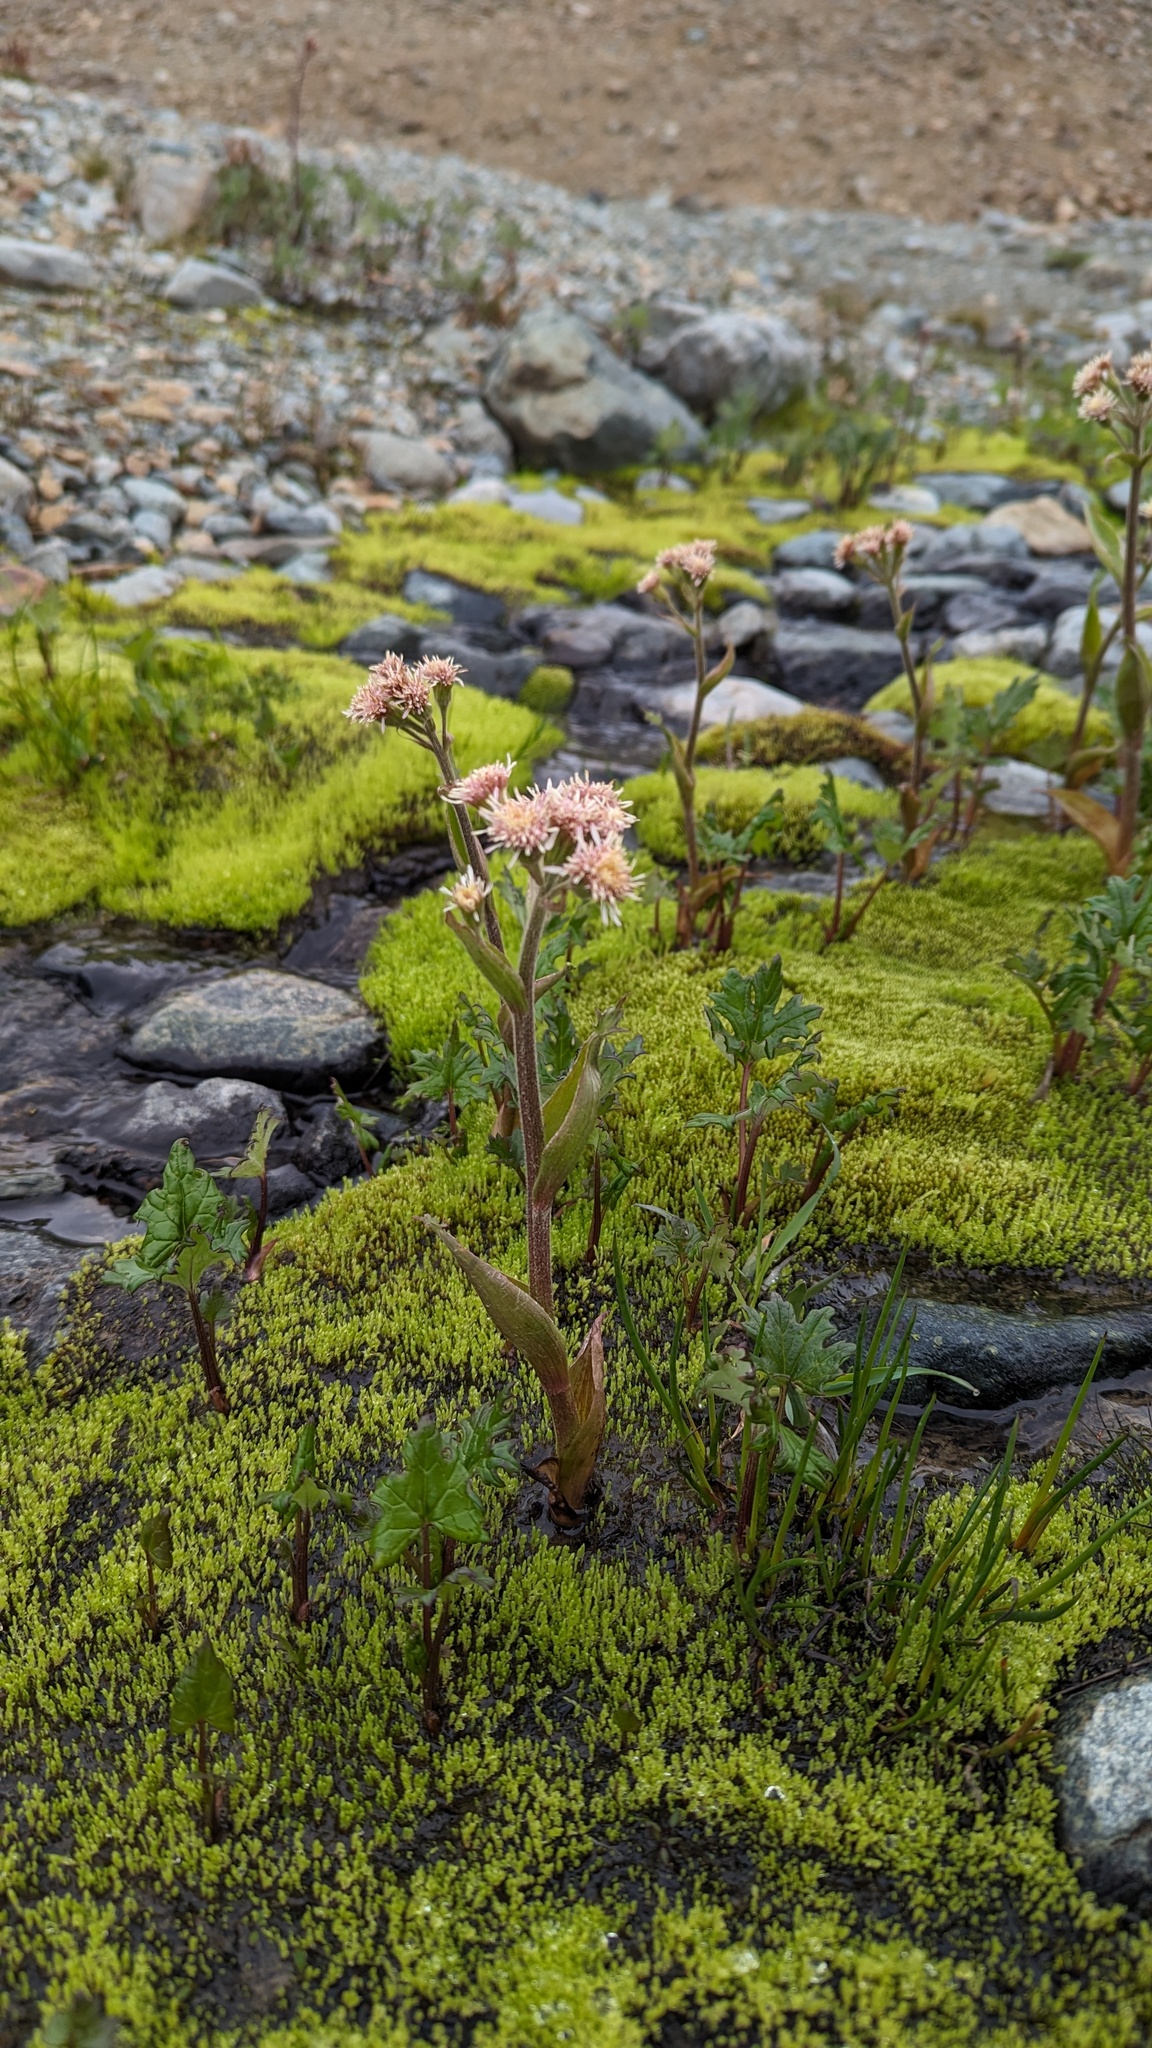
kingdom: Plantae
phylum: Tracheophyta
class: Magnoliopsida
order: Asterales
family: Asteraceae
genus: Petasites
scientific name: Petasites frigidus
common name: Arctic butterbur
